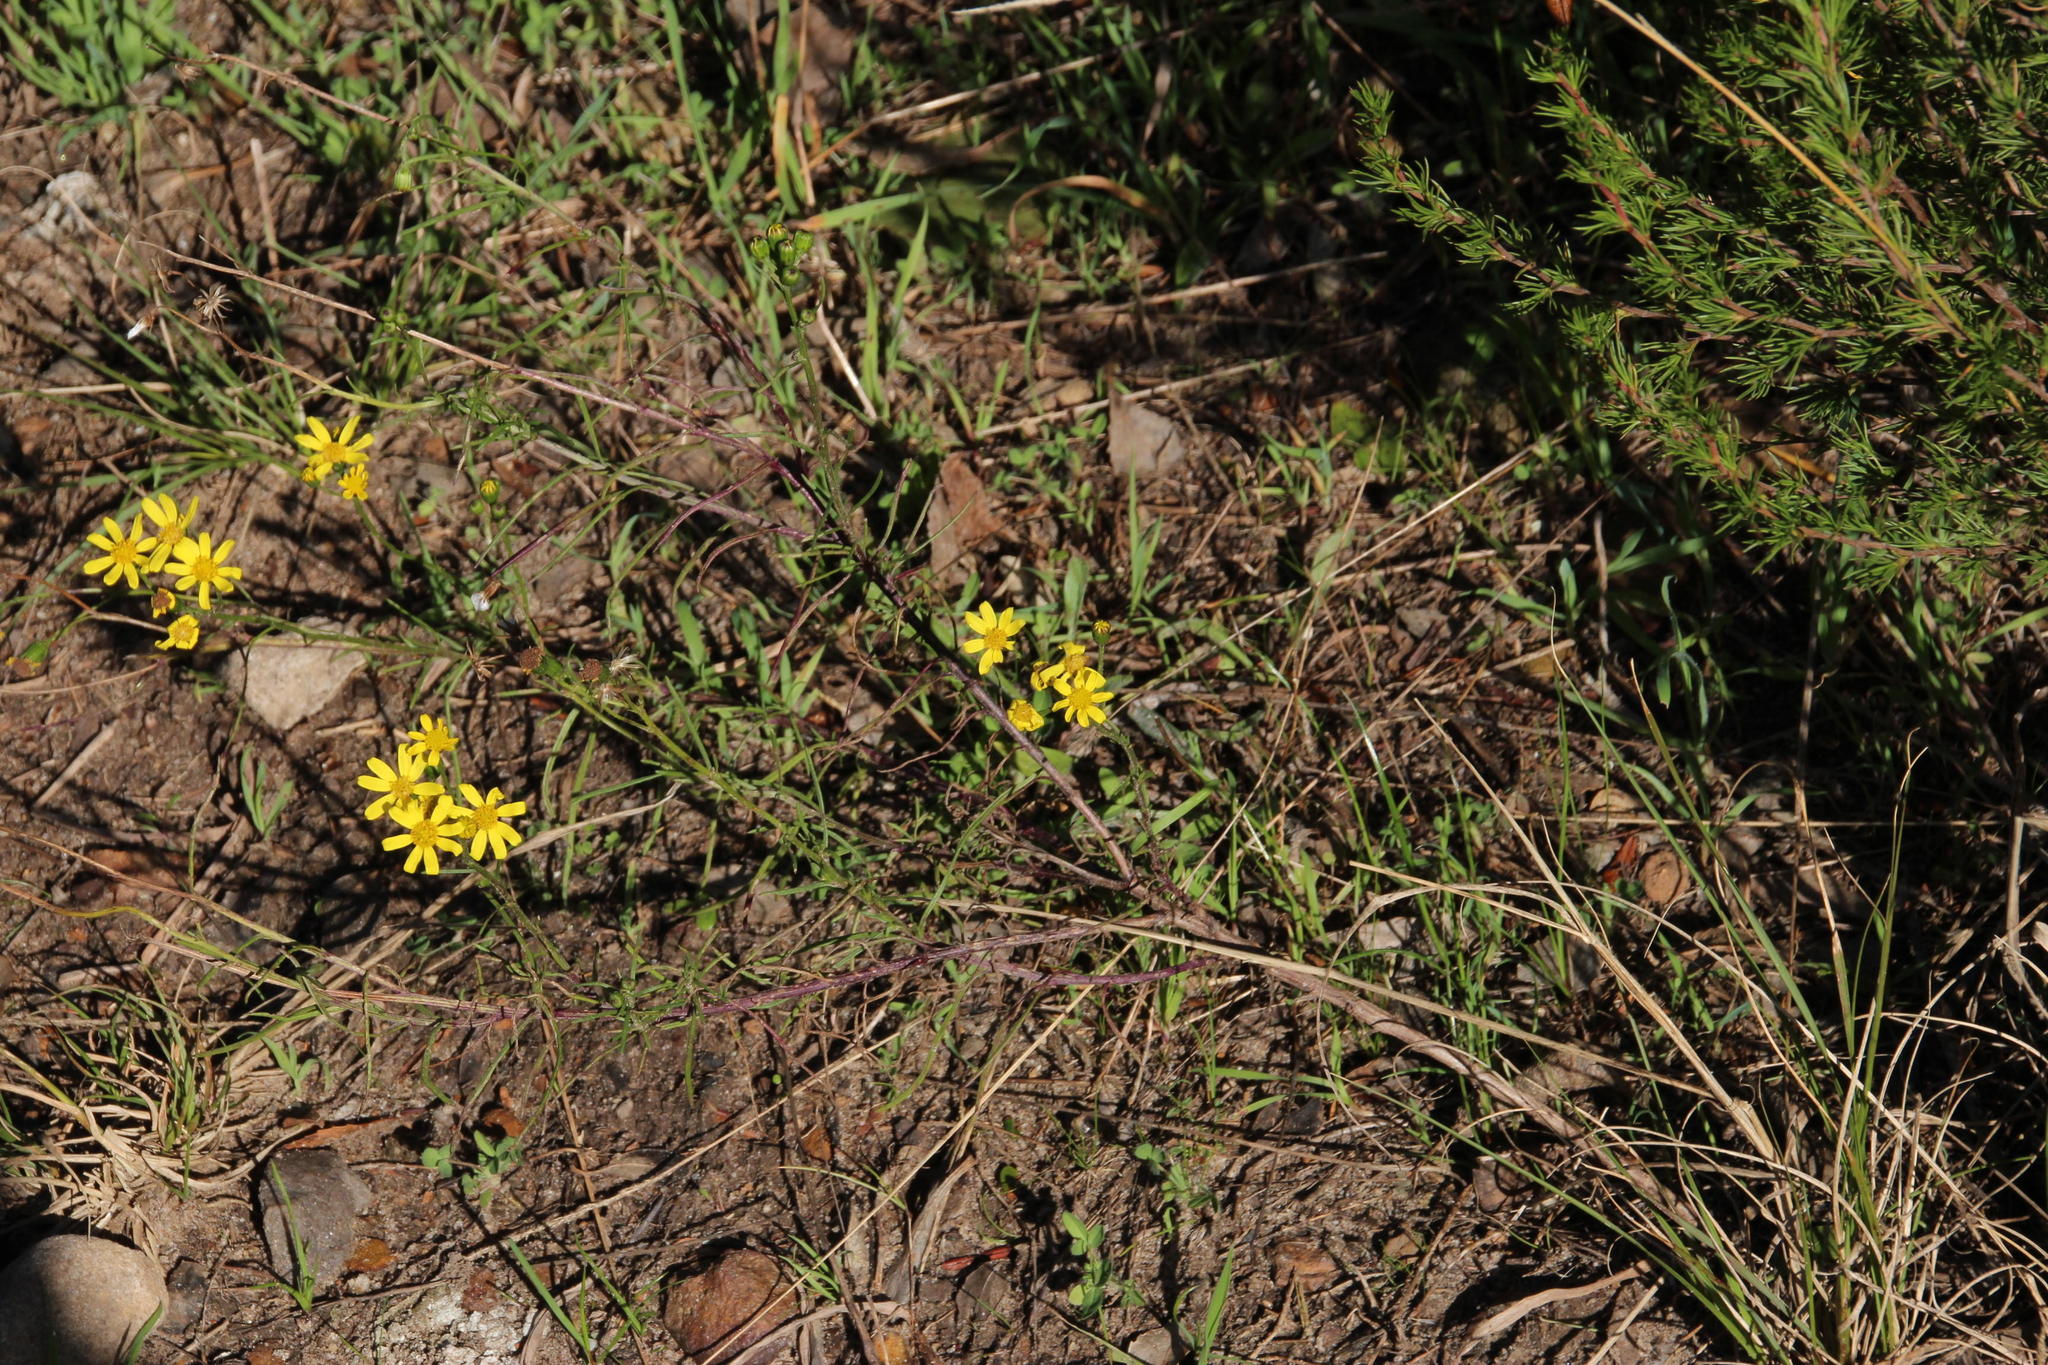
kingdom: Plantae
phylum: Tracheophyta
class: Magnoliopsida
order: Asterales
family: Asteraceae
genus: Senecio
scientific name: Senecio burchellii
